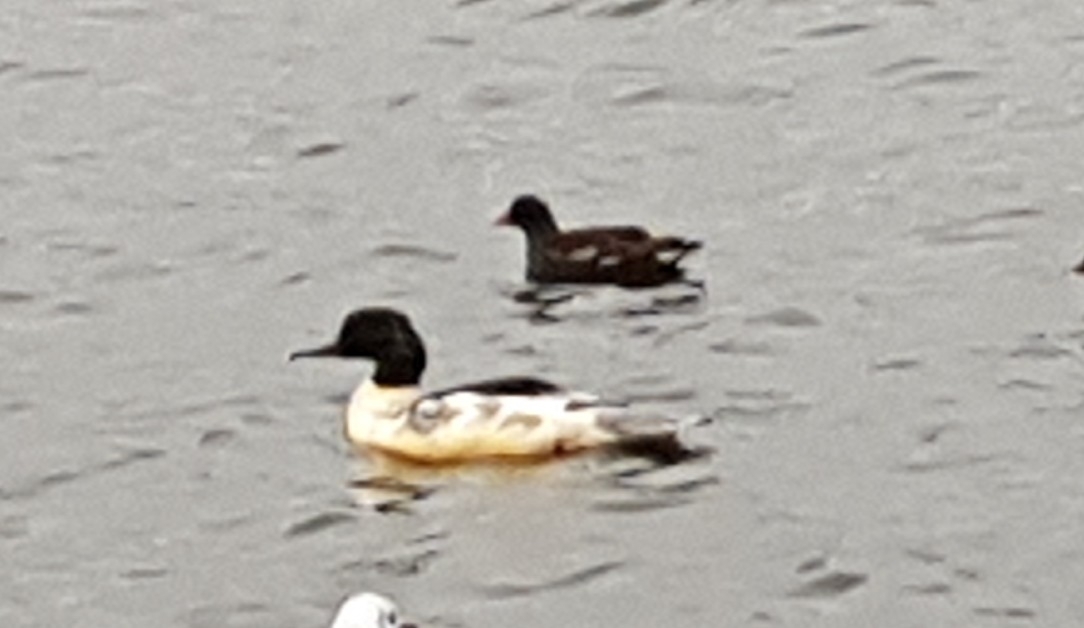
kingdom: Animalia
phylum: Chordata
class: Aves
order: Anseriformes
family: Anatidae
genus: Mergus
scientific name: Mergus merganser
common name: Common merganser
